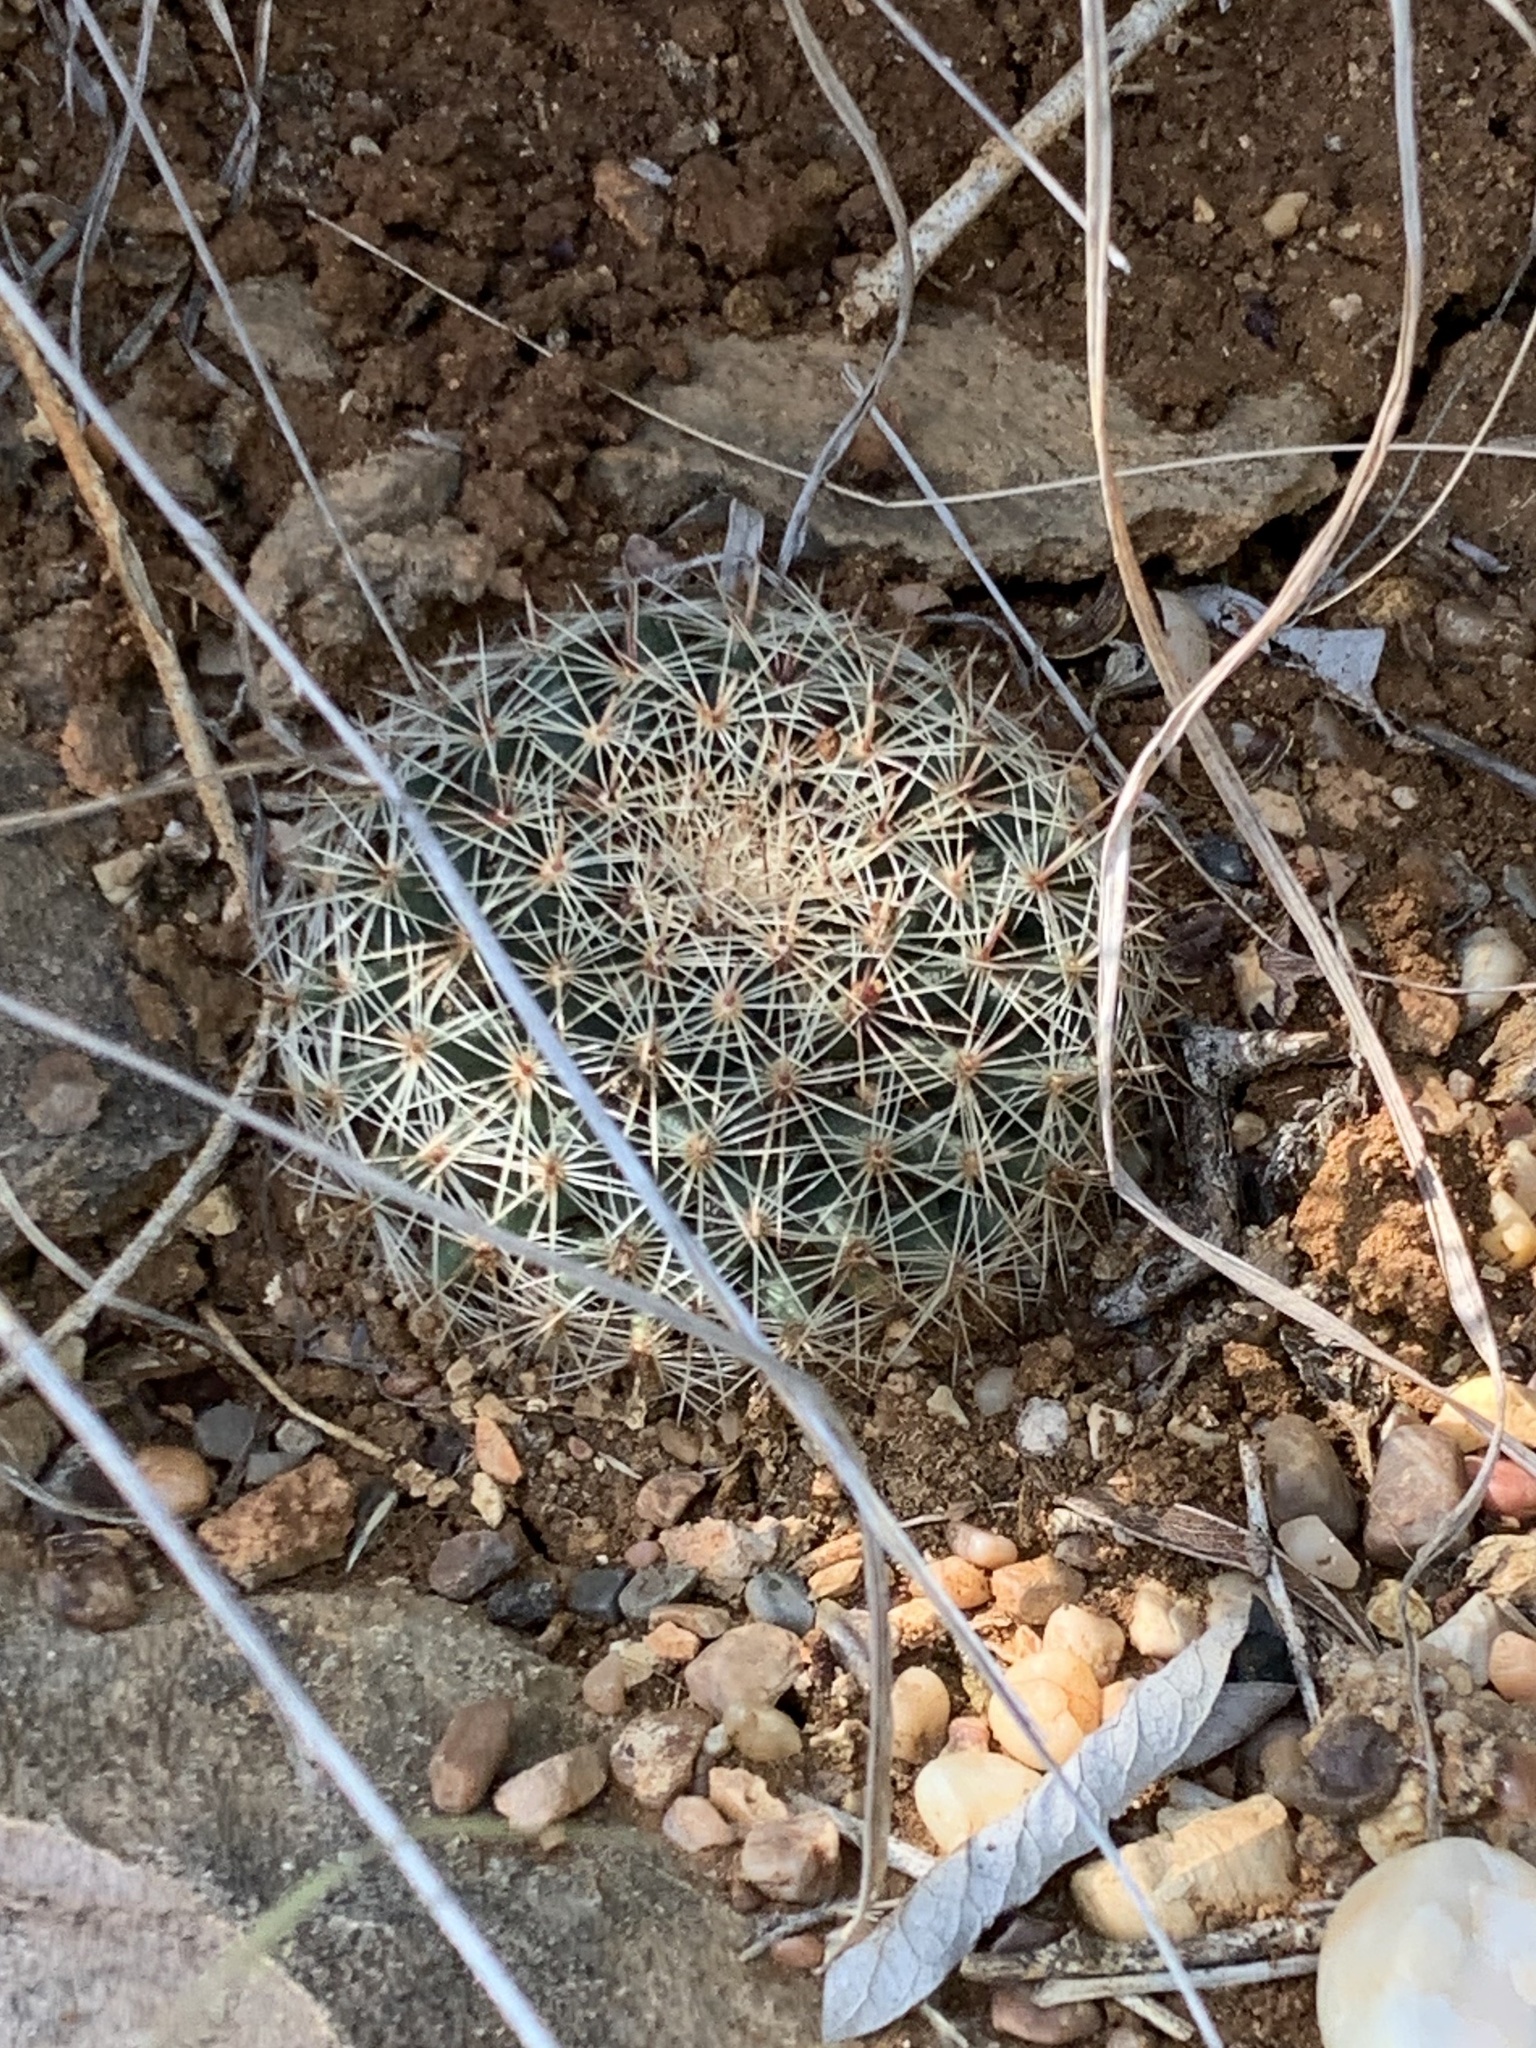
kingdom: Plantae
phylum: Tracheophyta
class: Magnoliopsida
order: Caryophyllales
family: Cactaceae
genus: Mammillaria
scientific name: Mammillaria heyderi
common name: Little nipple cactus
